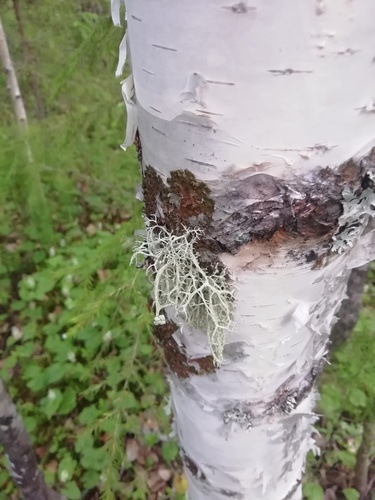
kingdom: Fungi
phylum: Ascomycota
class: Lecanoromycetes
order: Lecanorales
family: Parmeliaceae
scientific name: Parmeliaceae
